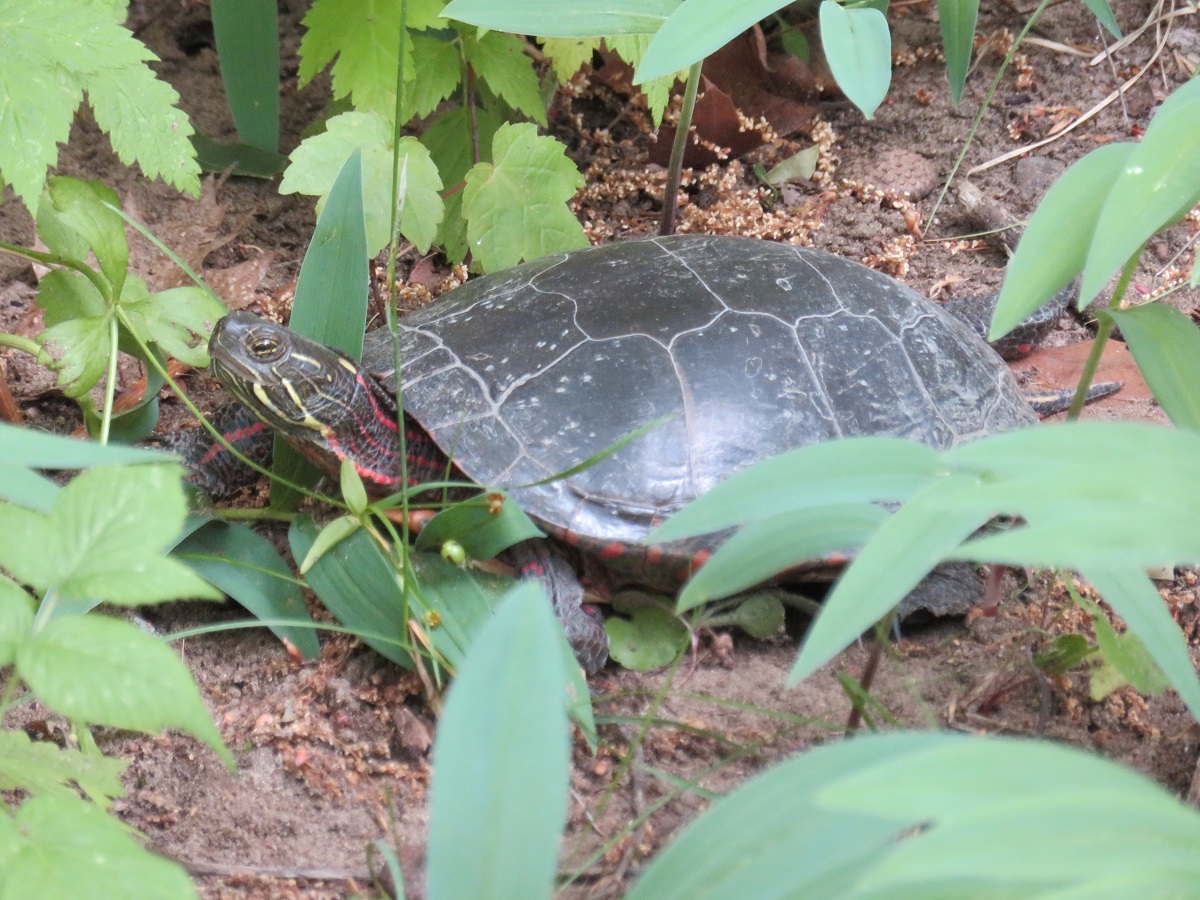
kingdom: Animalia
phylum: Chordata
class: Testudines
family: Emydidae
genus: Chrysemys
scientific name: Chrysemys picta
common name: Painted turtle
